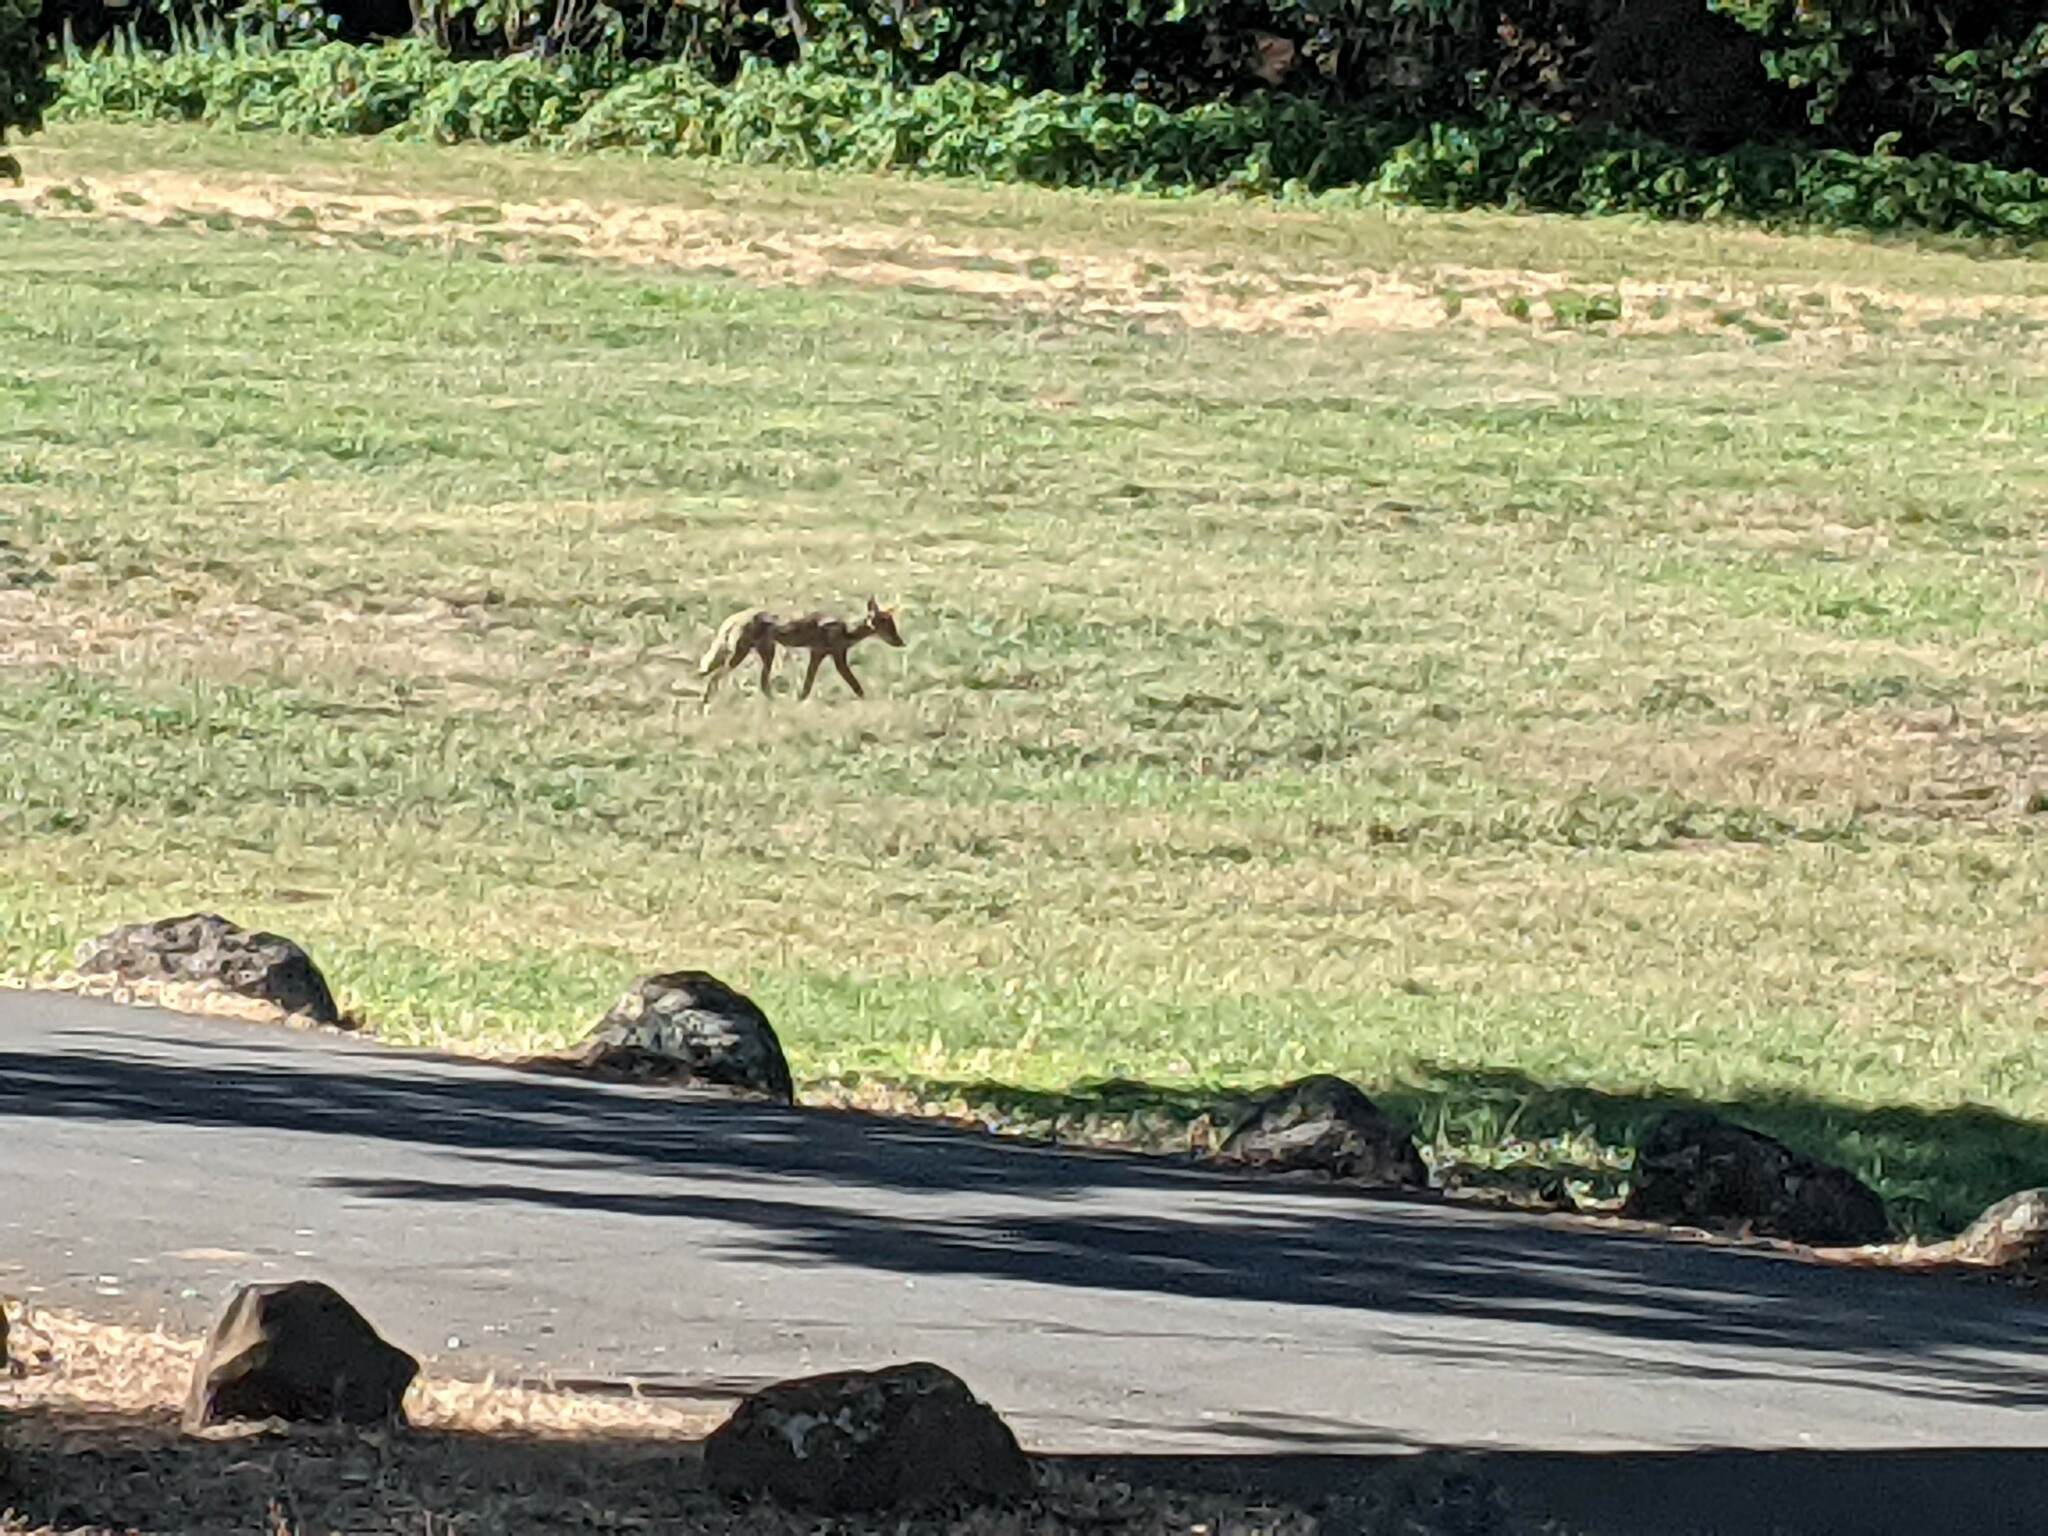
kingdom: Animalia
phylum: Chordata
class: Mammalia
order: Carnivora
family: Canidae
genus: Canis
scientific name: Canis latrans
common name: Coyote
